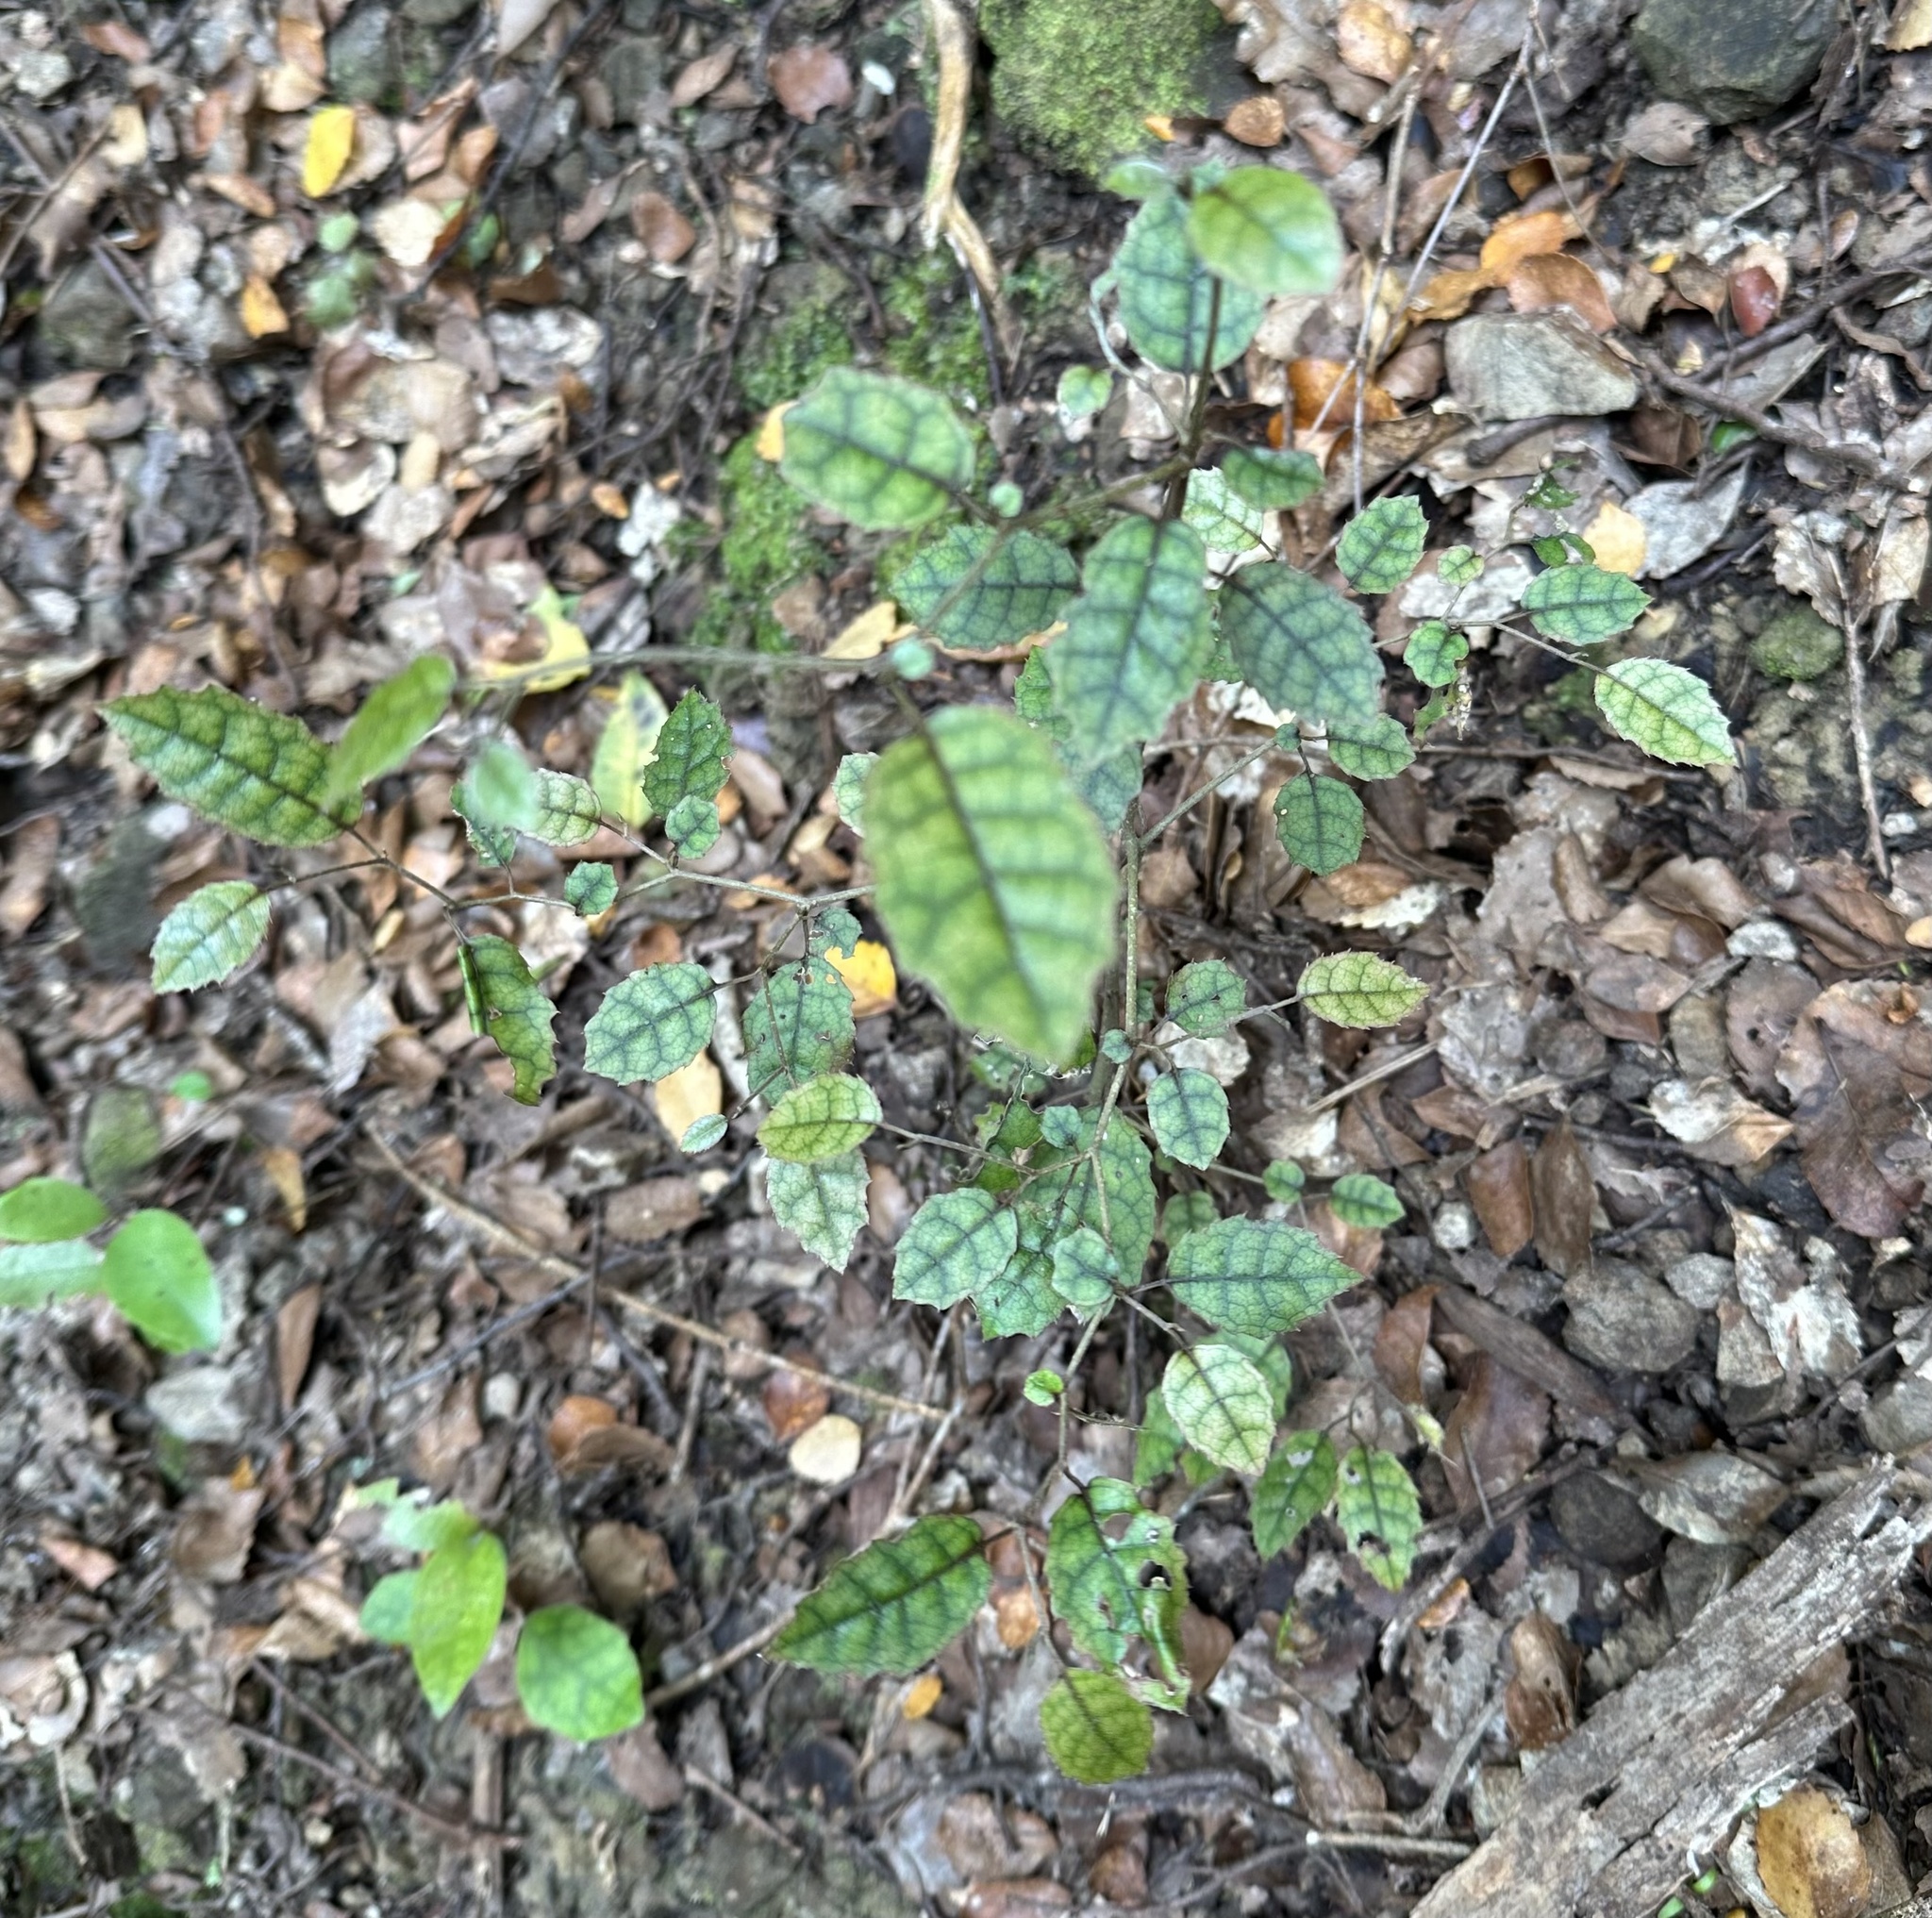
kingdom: Plantae
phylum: Tracheophyta
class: Magnoliopsida
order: Asterales
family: Rousseaceae
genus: Carpodetus
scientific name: Carpodetus serratus
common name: White mapau
